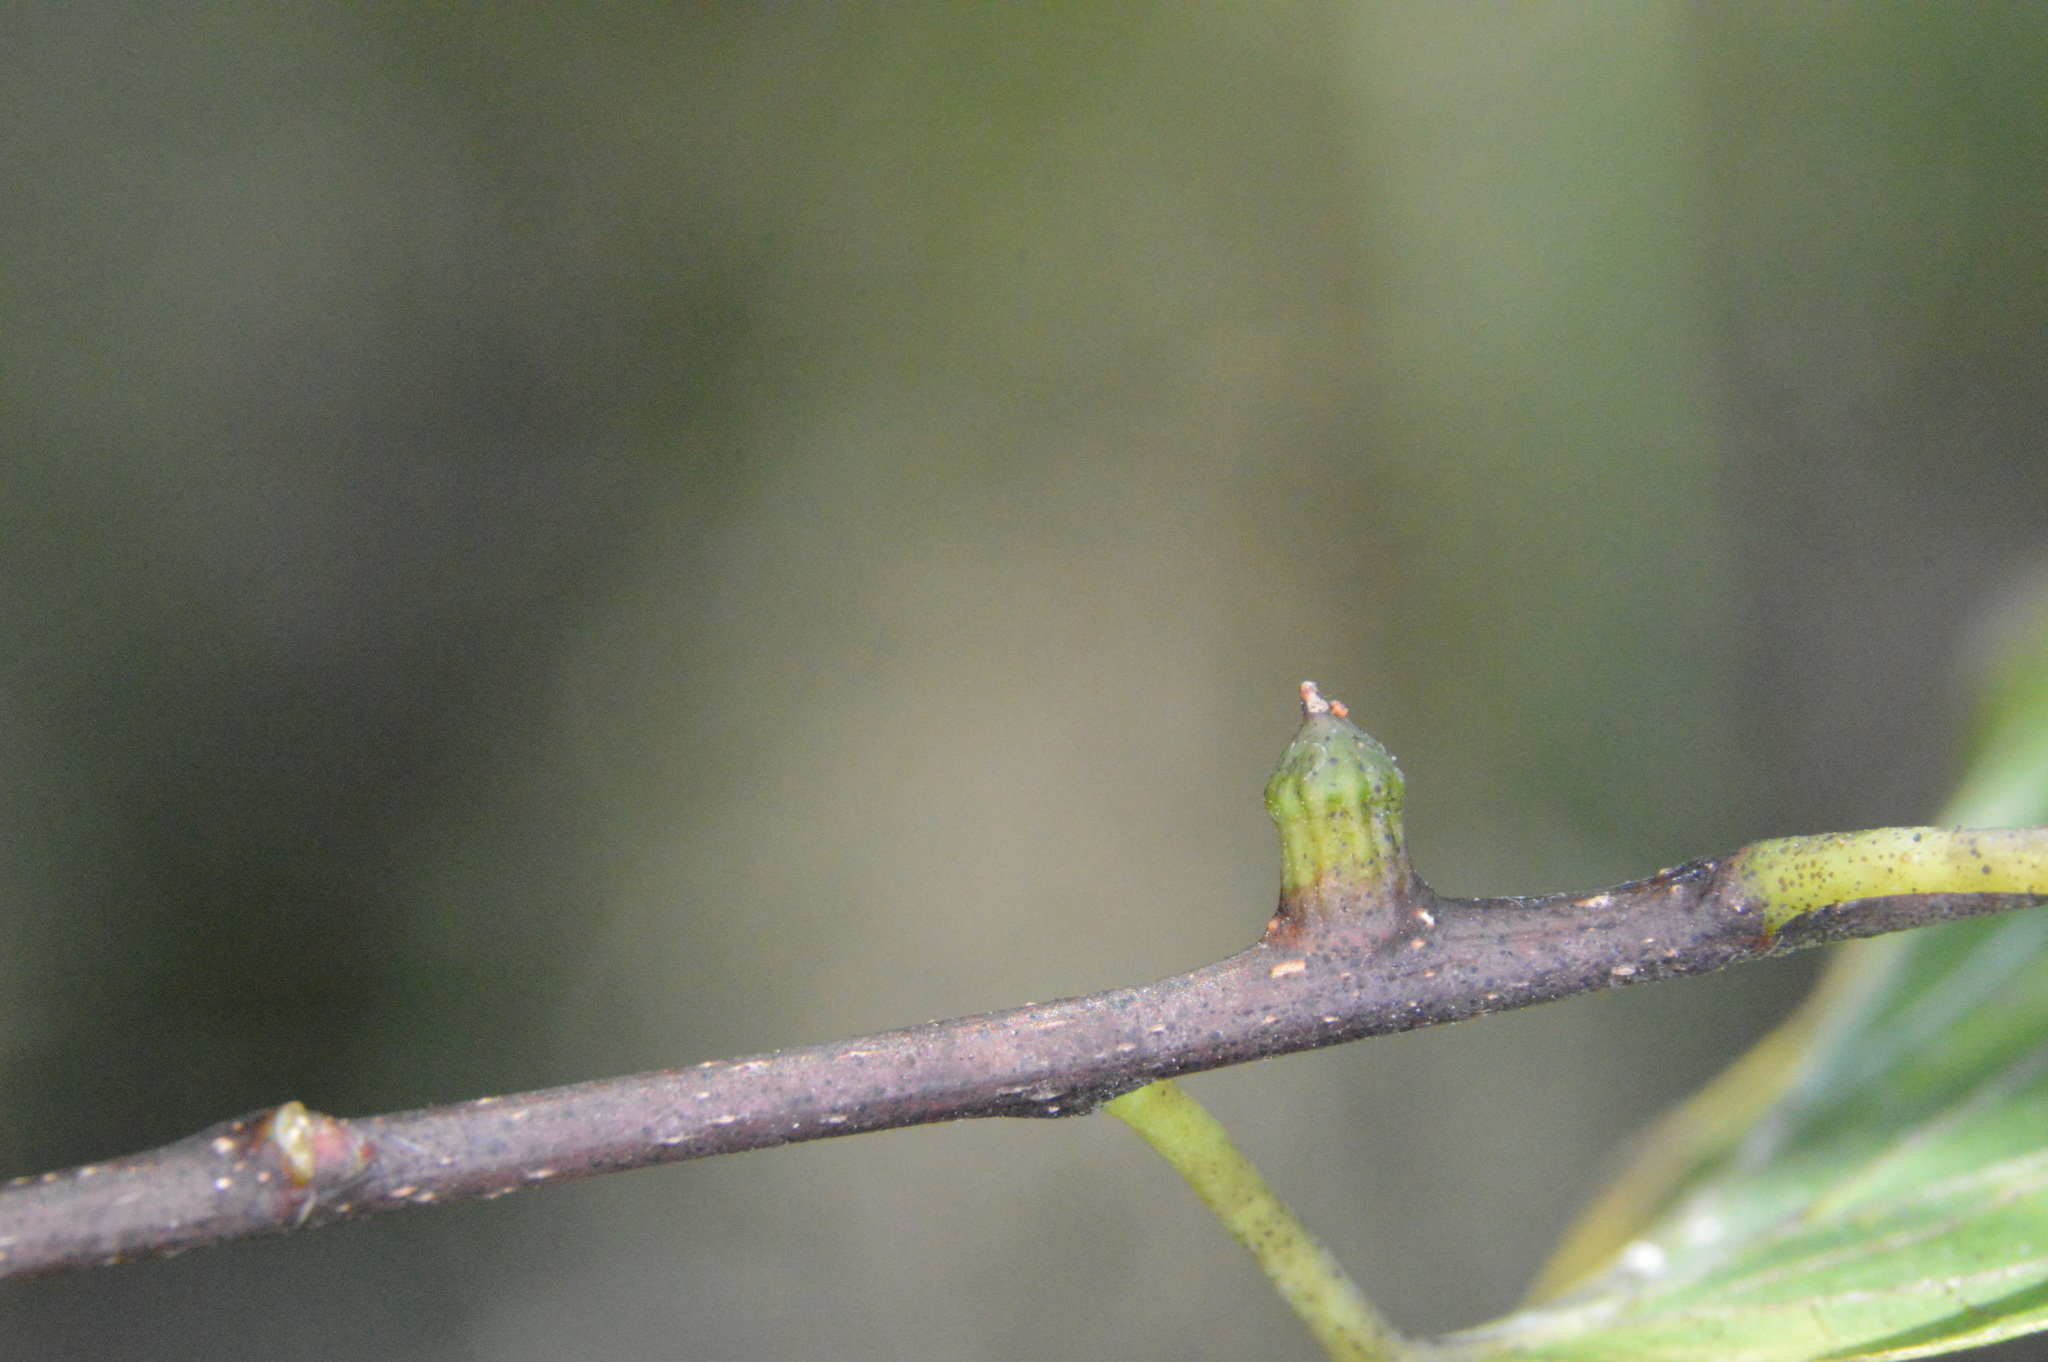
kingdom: Animalia
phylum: Arthropoda
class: Insecta
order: Diptera
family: Cecidomyiidae
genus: Celticecis
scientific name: Celticecis ramicola
